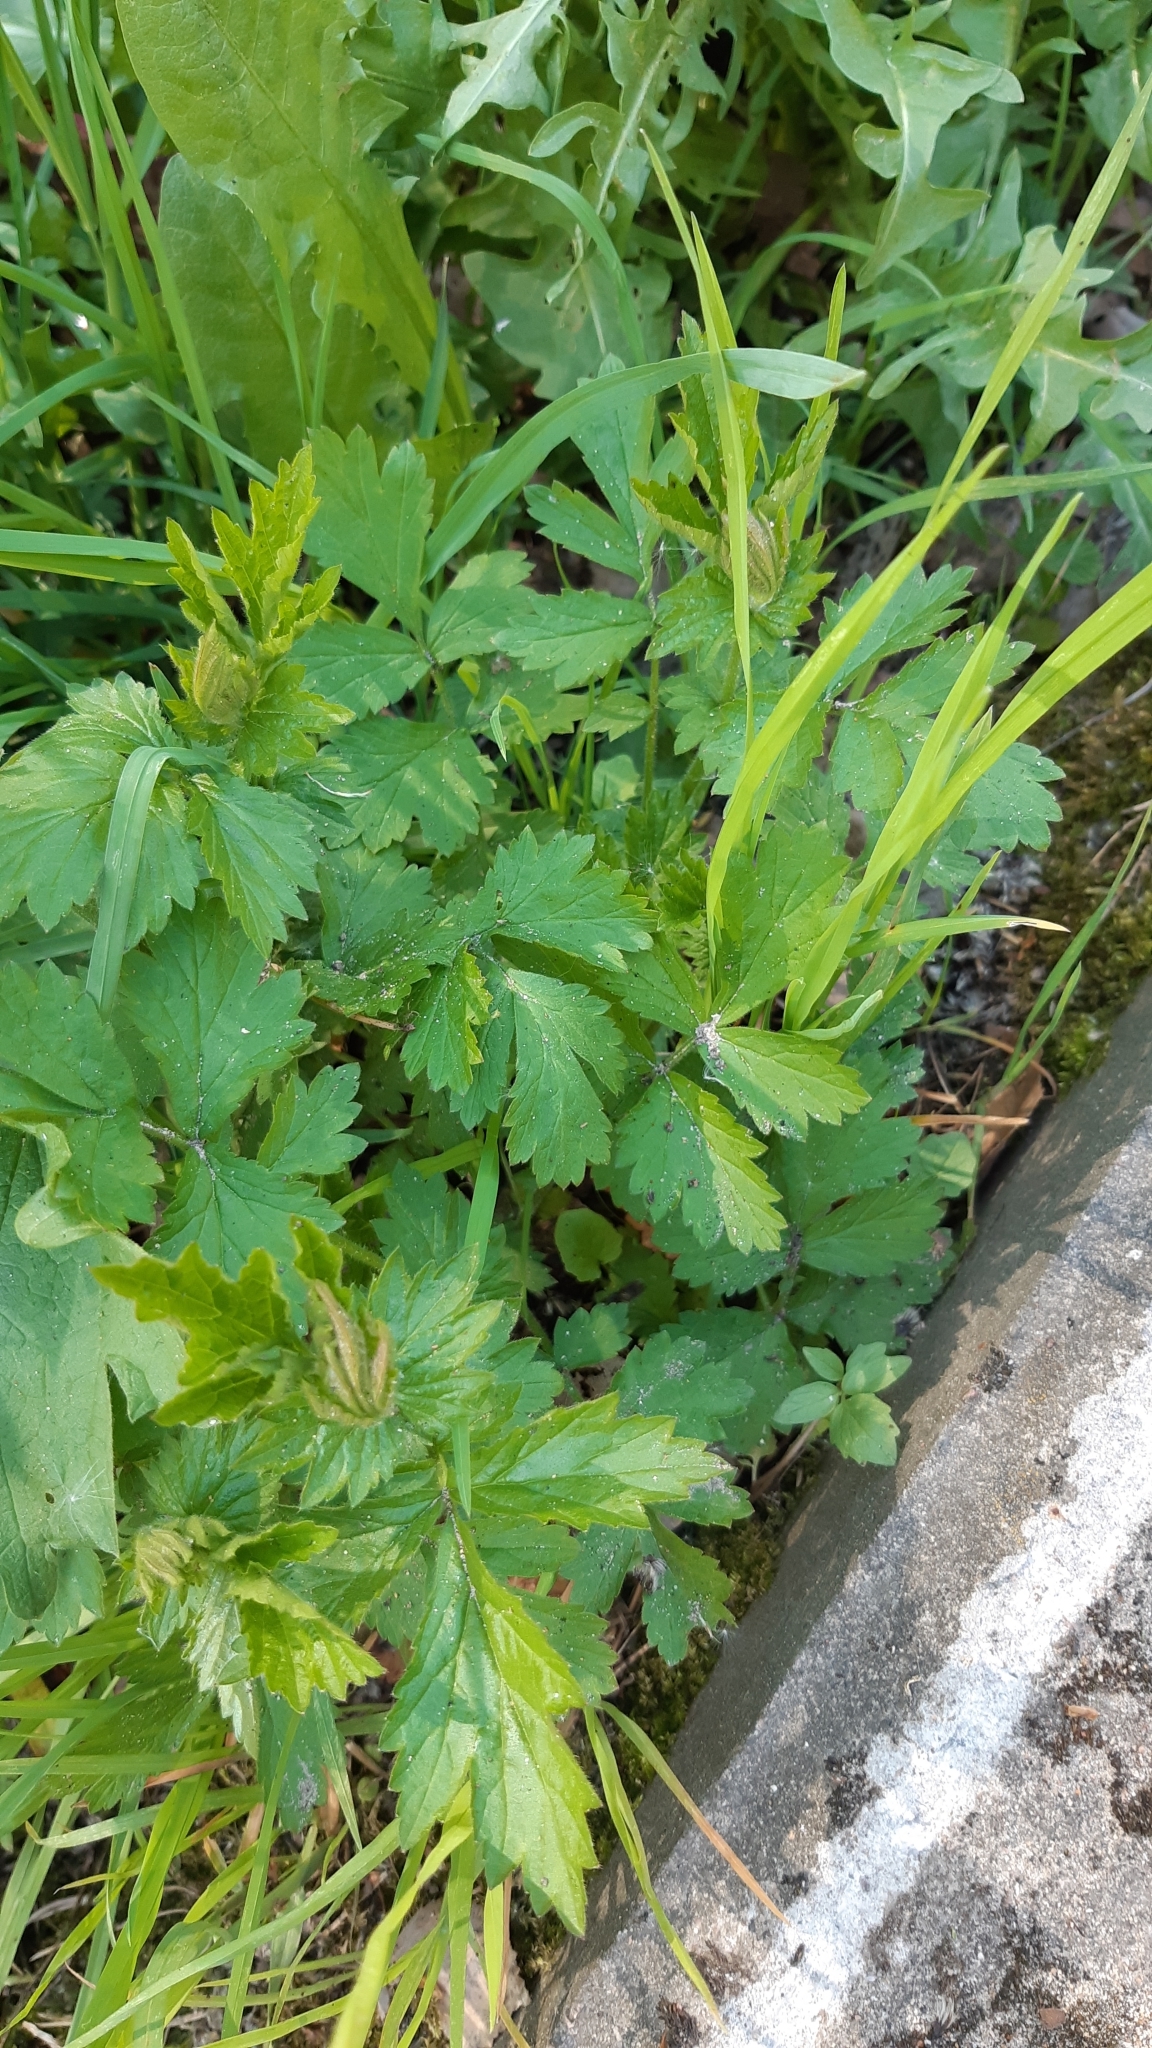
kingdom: Plantae
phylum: Tracheophyta
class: Magnoliopsida
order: Rosales
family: Rosaceae
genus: Geum
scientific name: Geum urbanum
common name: Wood avens
